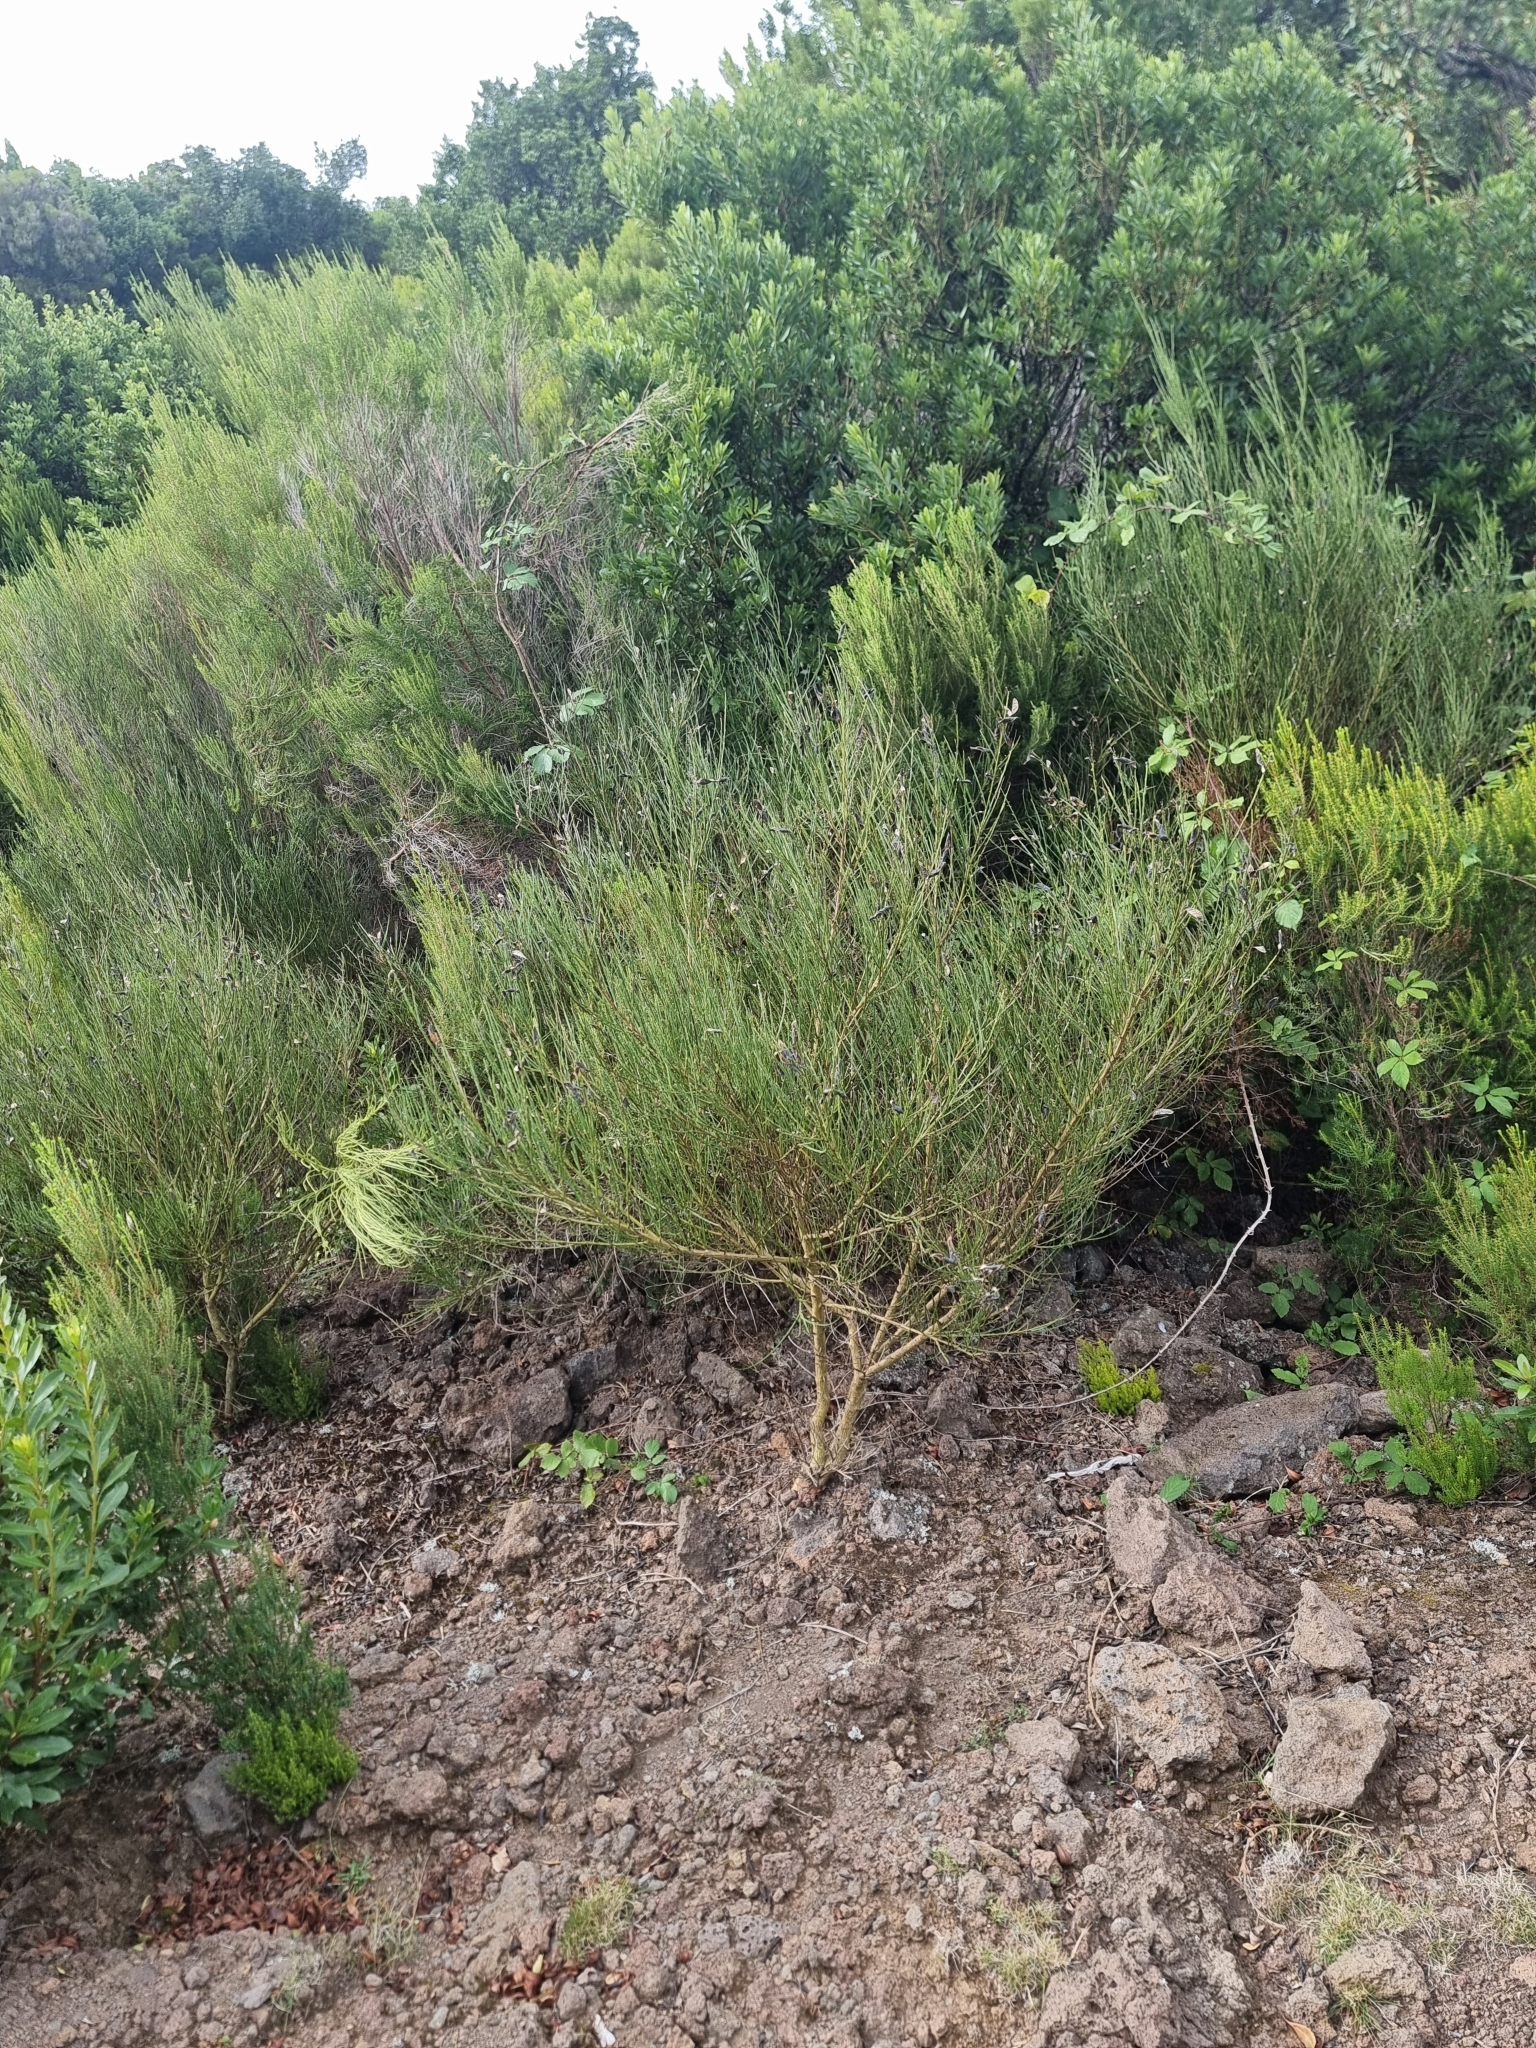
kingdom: Plantae
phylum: Tracheophyta
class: Magnoliopsida
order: Fabales
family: Fabaceae
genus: Cytisus
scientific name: Cytisus scoparius
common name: Scotch broom
